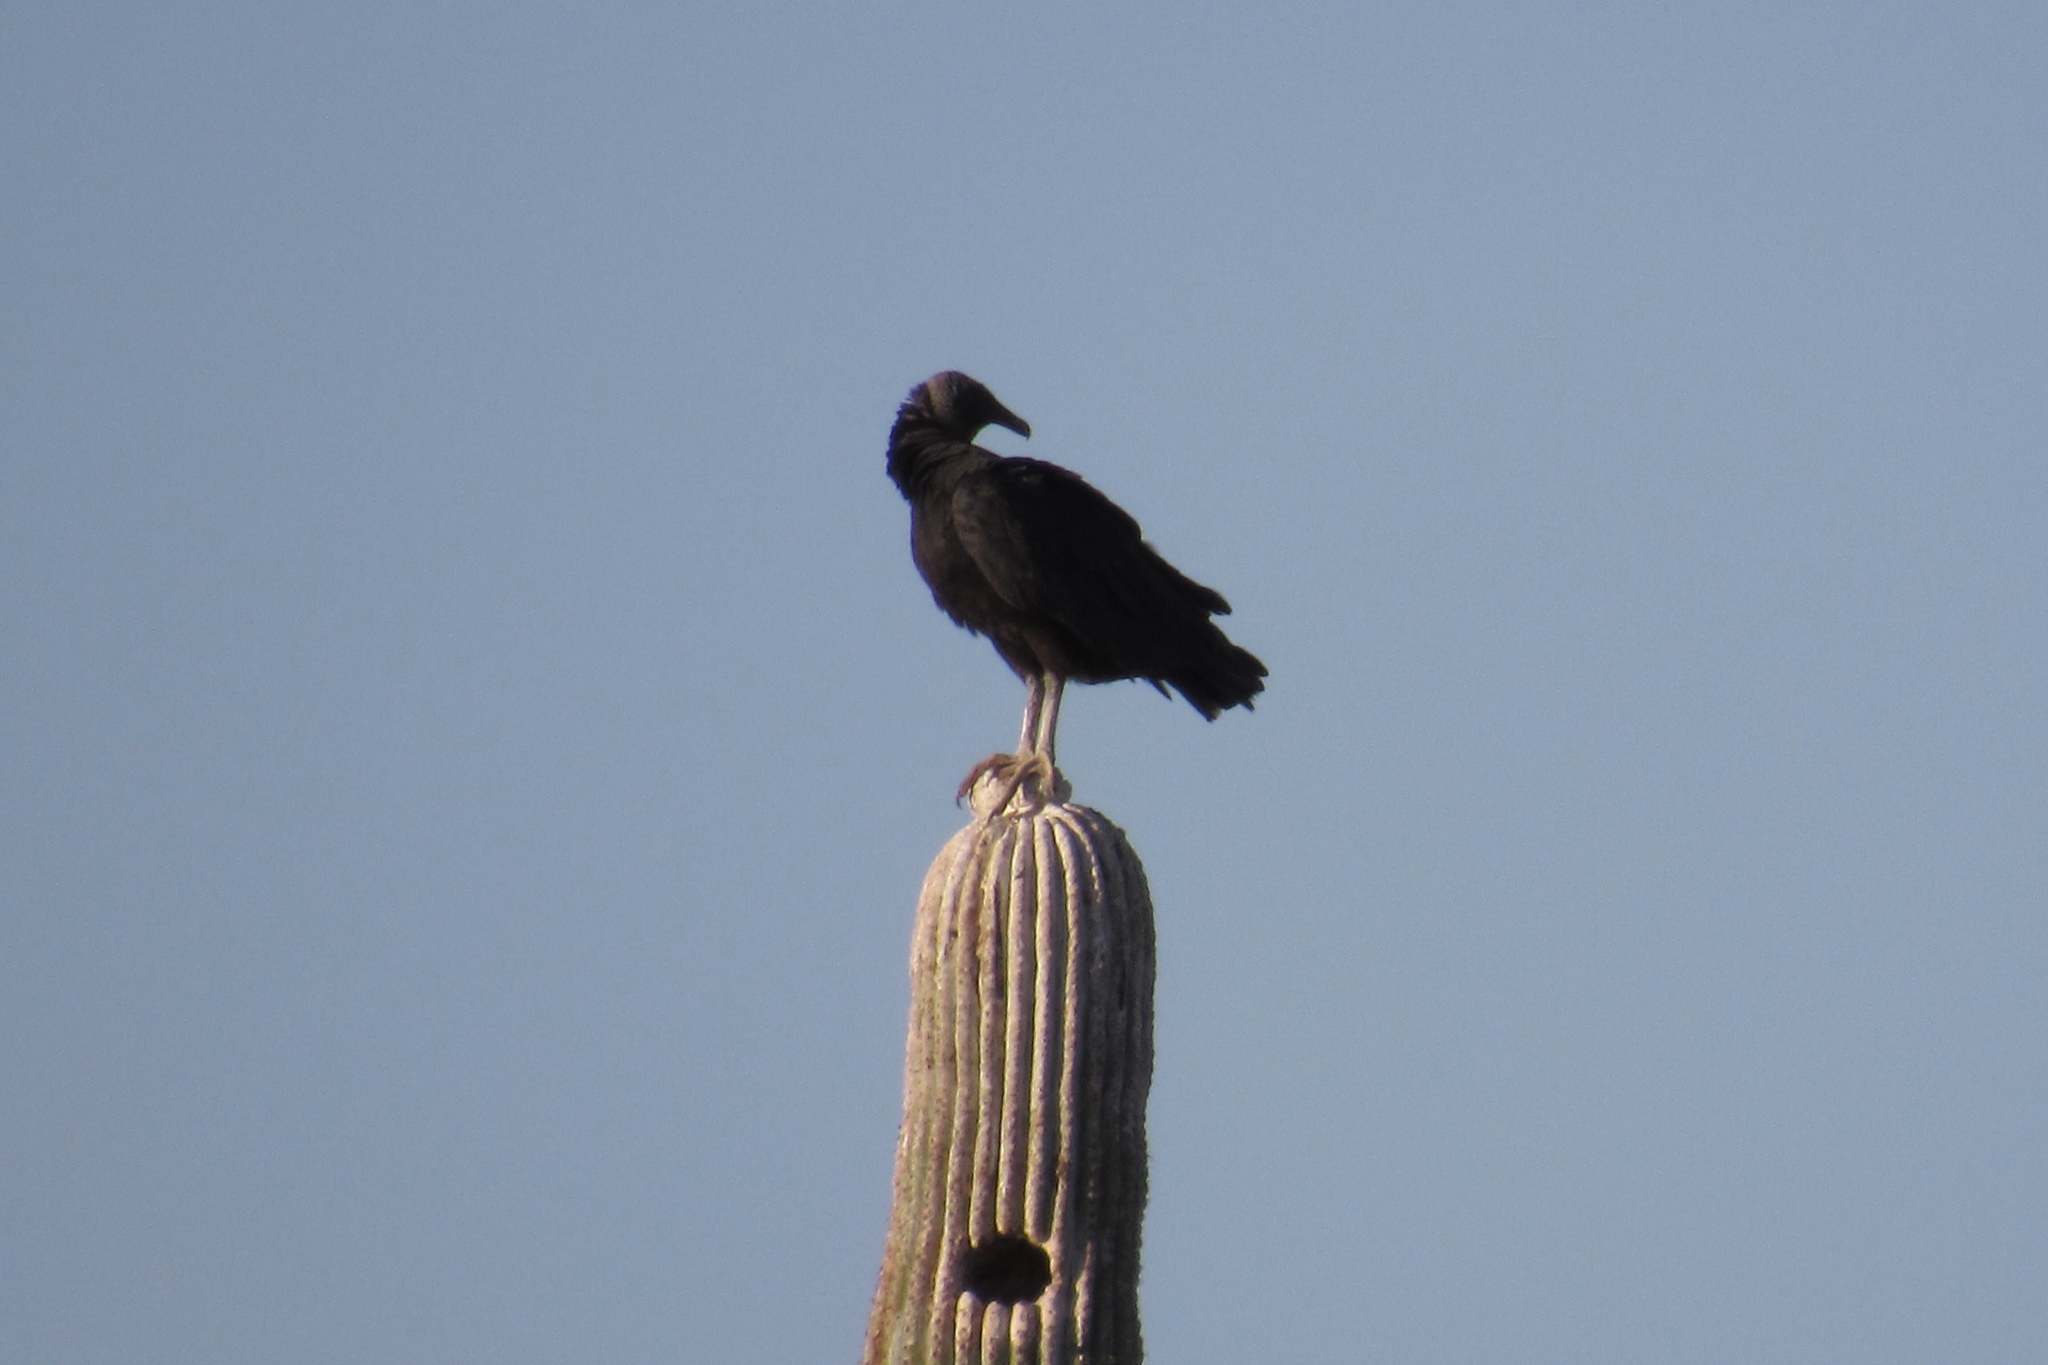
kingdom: Animalia
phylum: Chordata
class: Aves
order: Accipitriformes
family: Cathartidae
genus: Coragyps
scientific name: Coragyps atratus
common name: Black vulture
